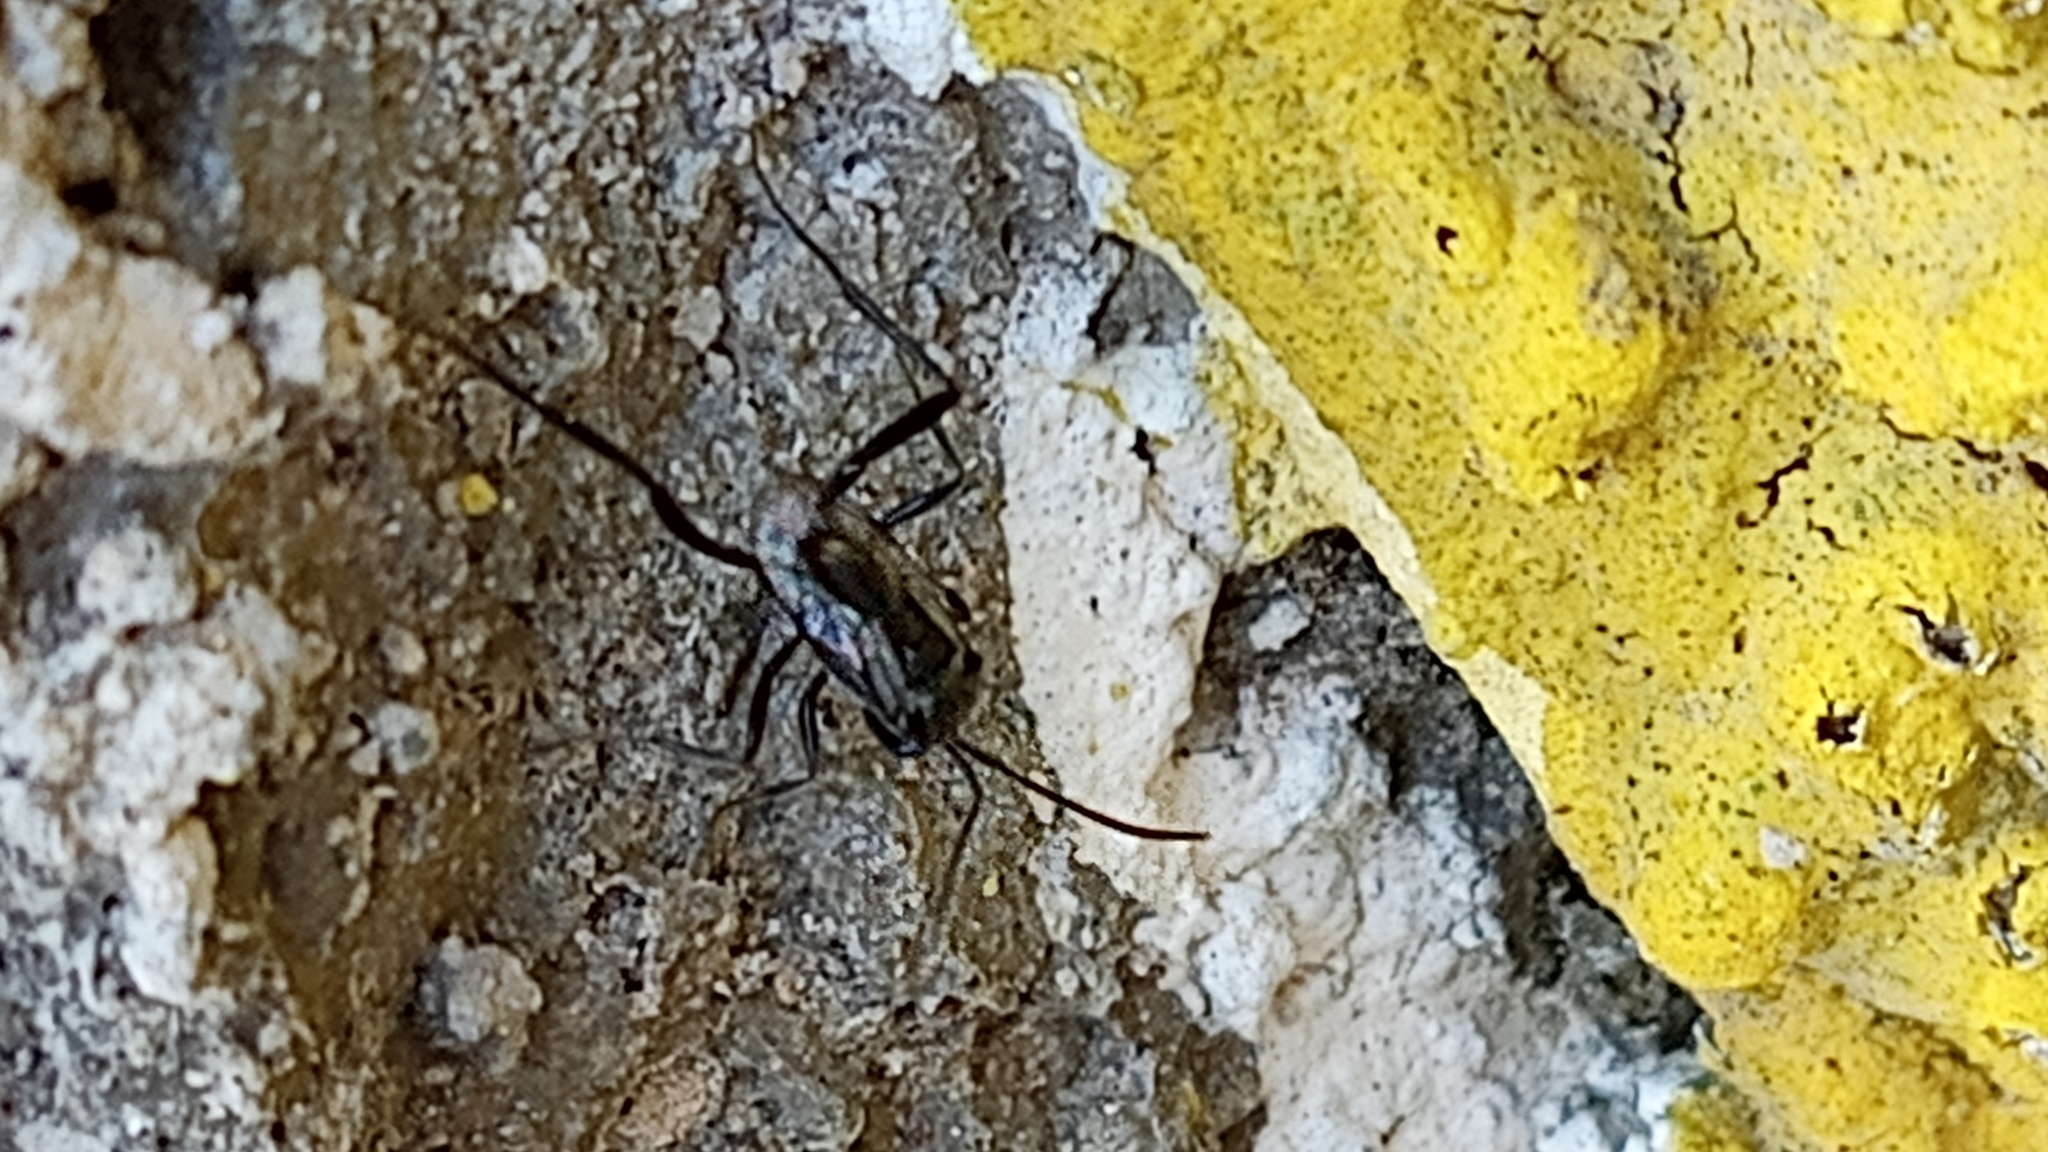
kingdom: Animalia
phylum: Arthropoda
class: Insecta
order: Hymenoptera
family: Evaniidae
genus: Evania
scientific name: Evania appendigaster
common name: Ensign wasp
